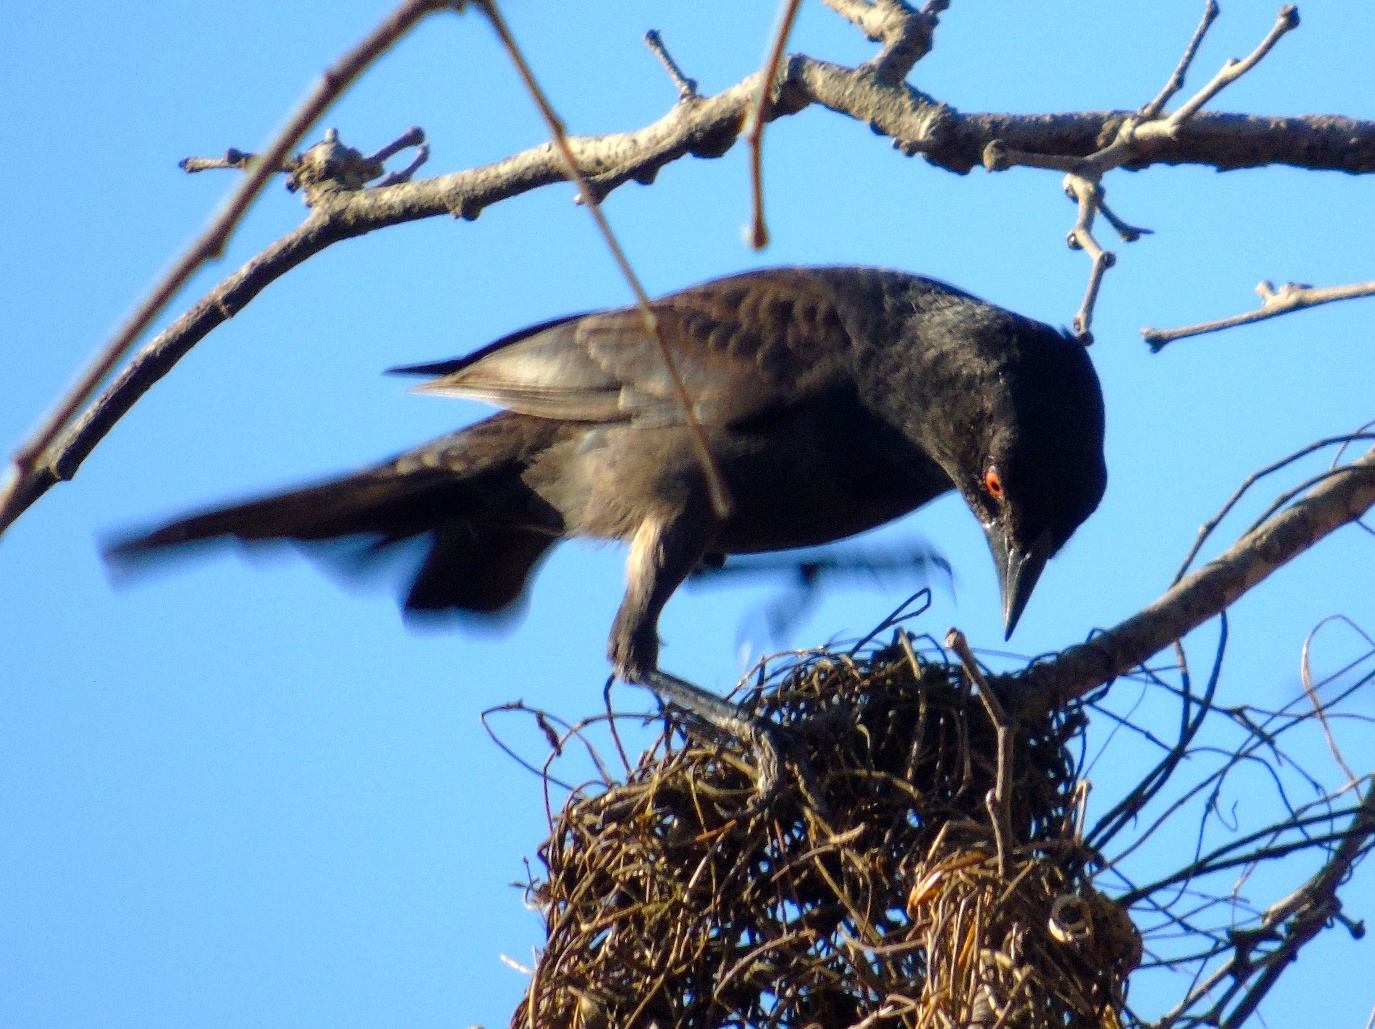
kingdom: Animalia
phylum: Chordata
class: Aves
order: Passeriformes
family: Icteridae
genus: Molothrus
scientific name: Molothrus aeneus
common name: Bronzed cowbird
